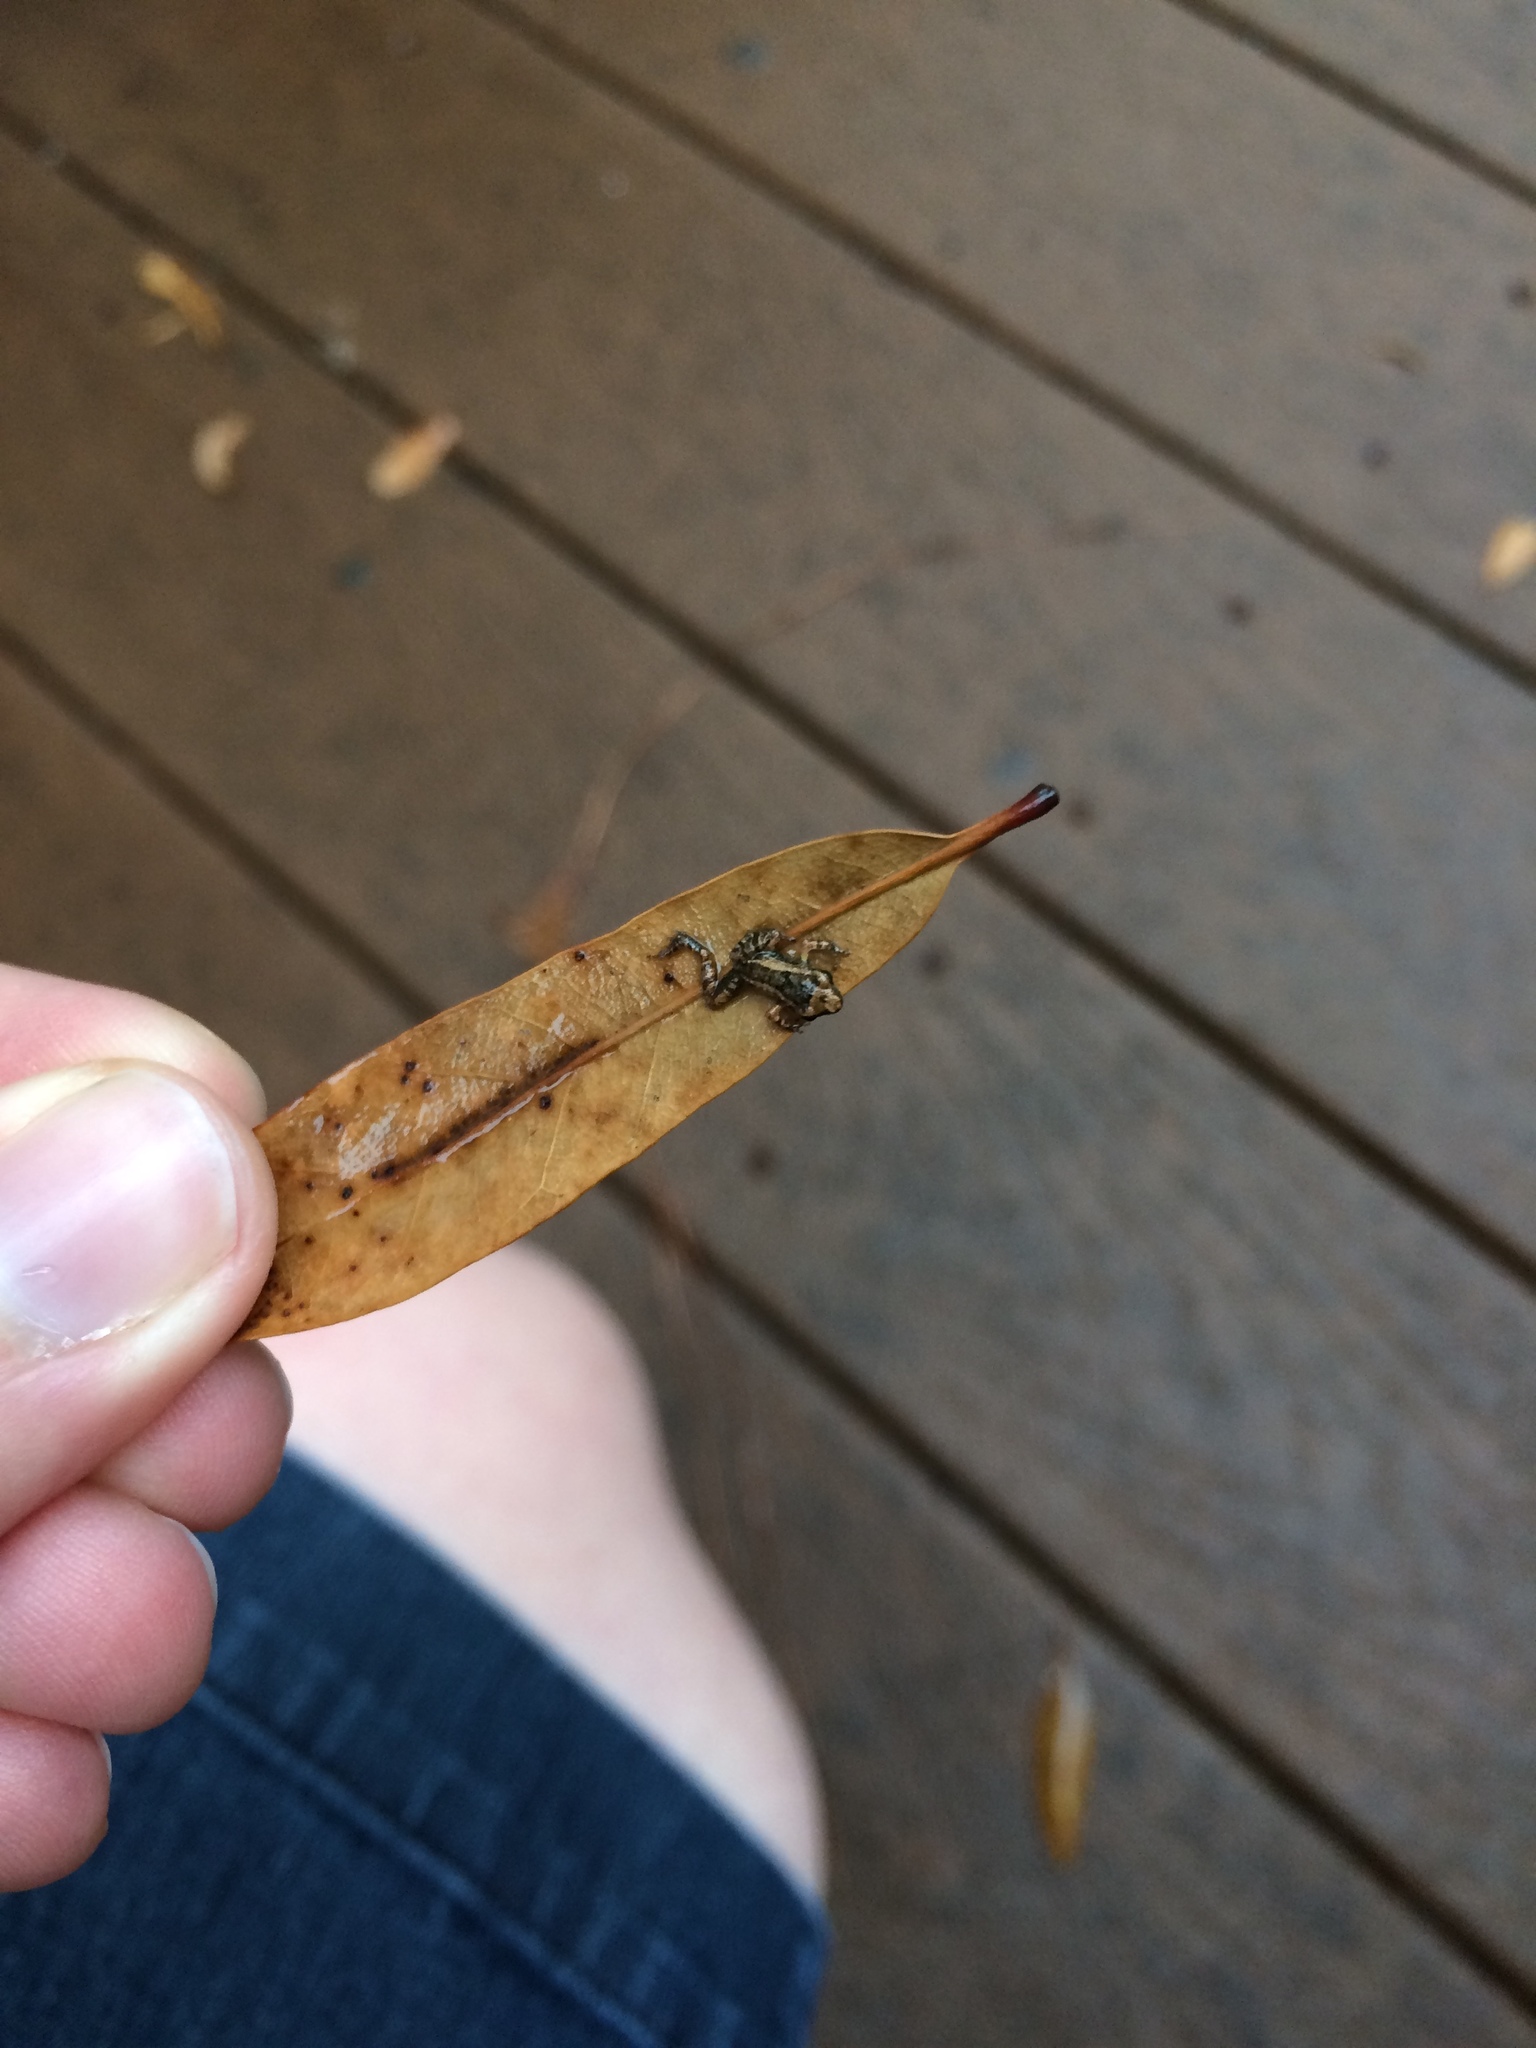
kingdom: Animalia
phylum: Chordata
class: Amphibia
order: Anura
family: Eleutherodactylidae
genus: Eleutherodactylus
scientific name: Eleutherodactylus planirostris
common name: Greenhouse frog
